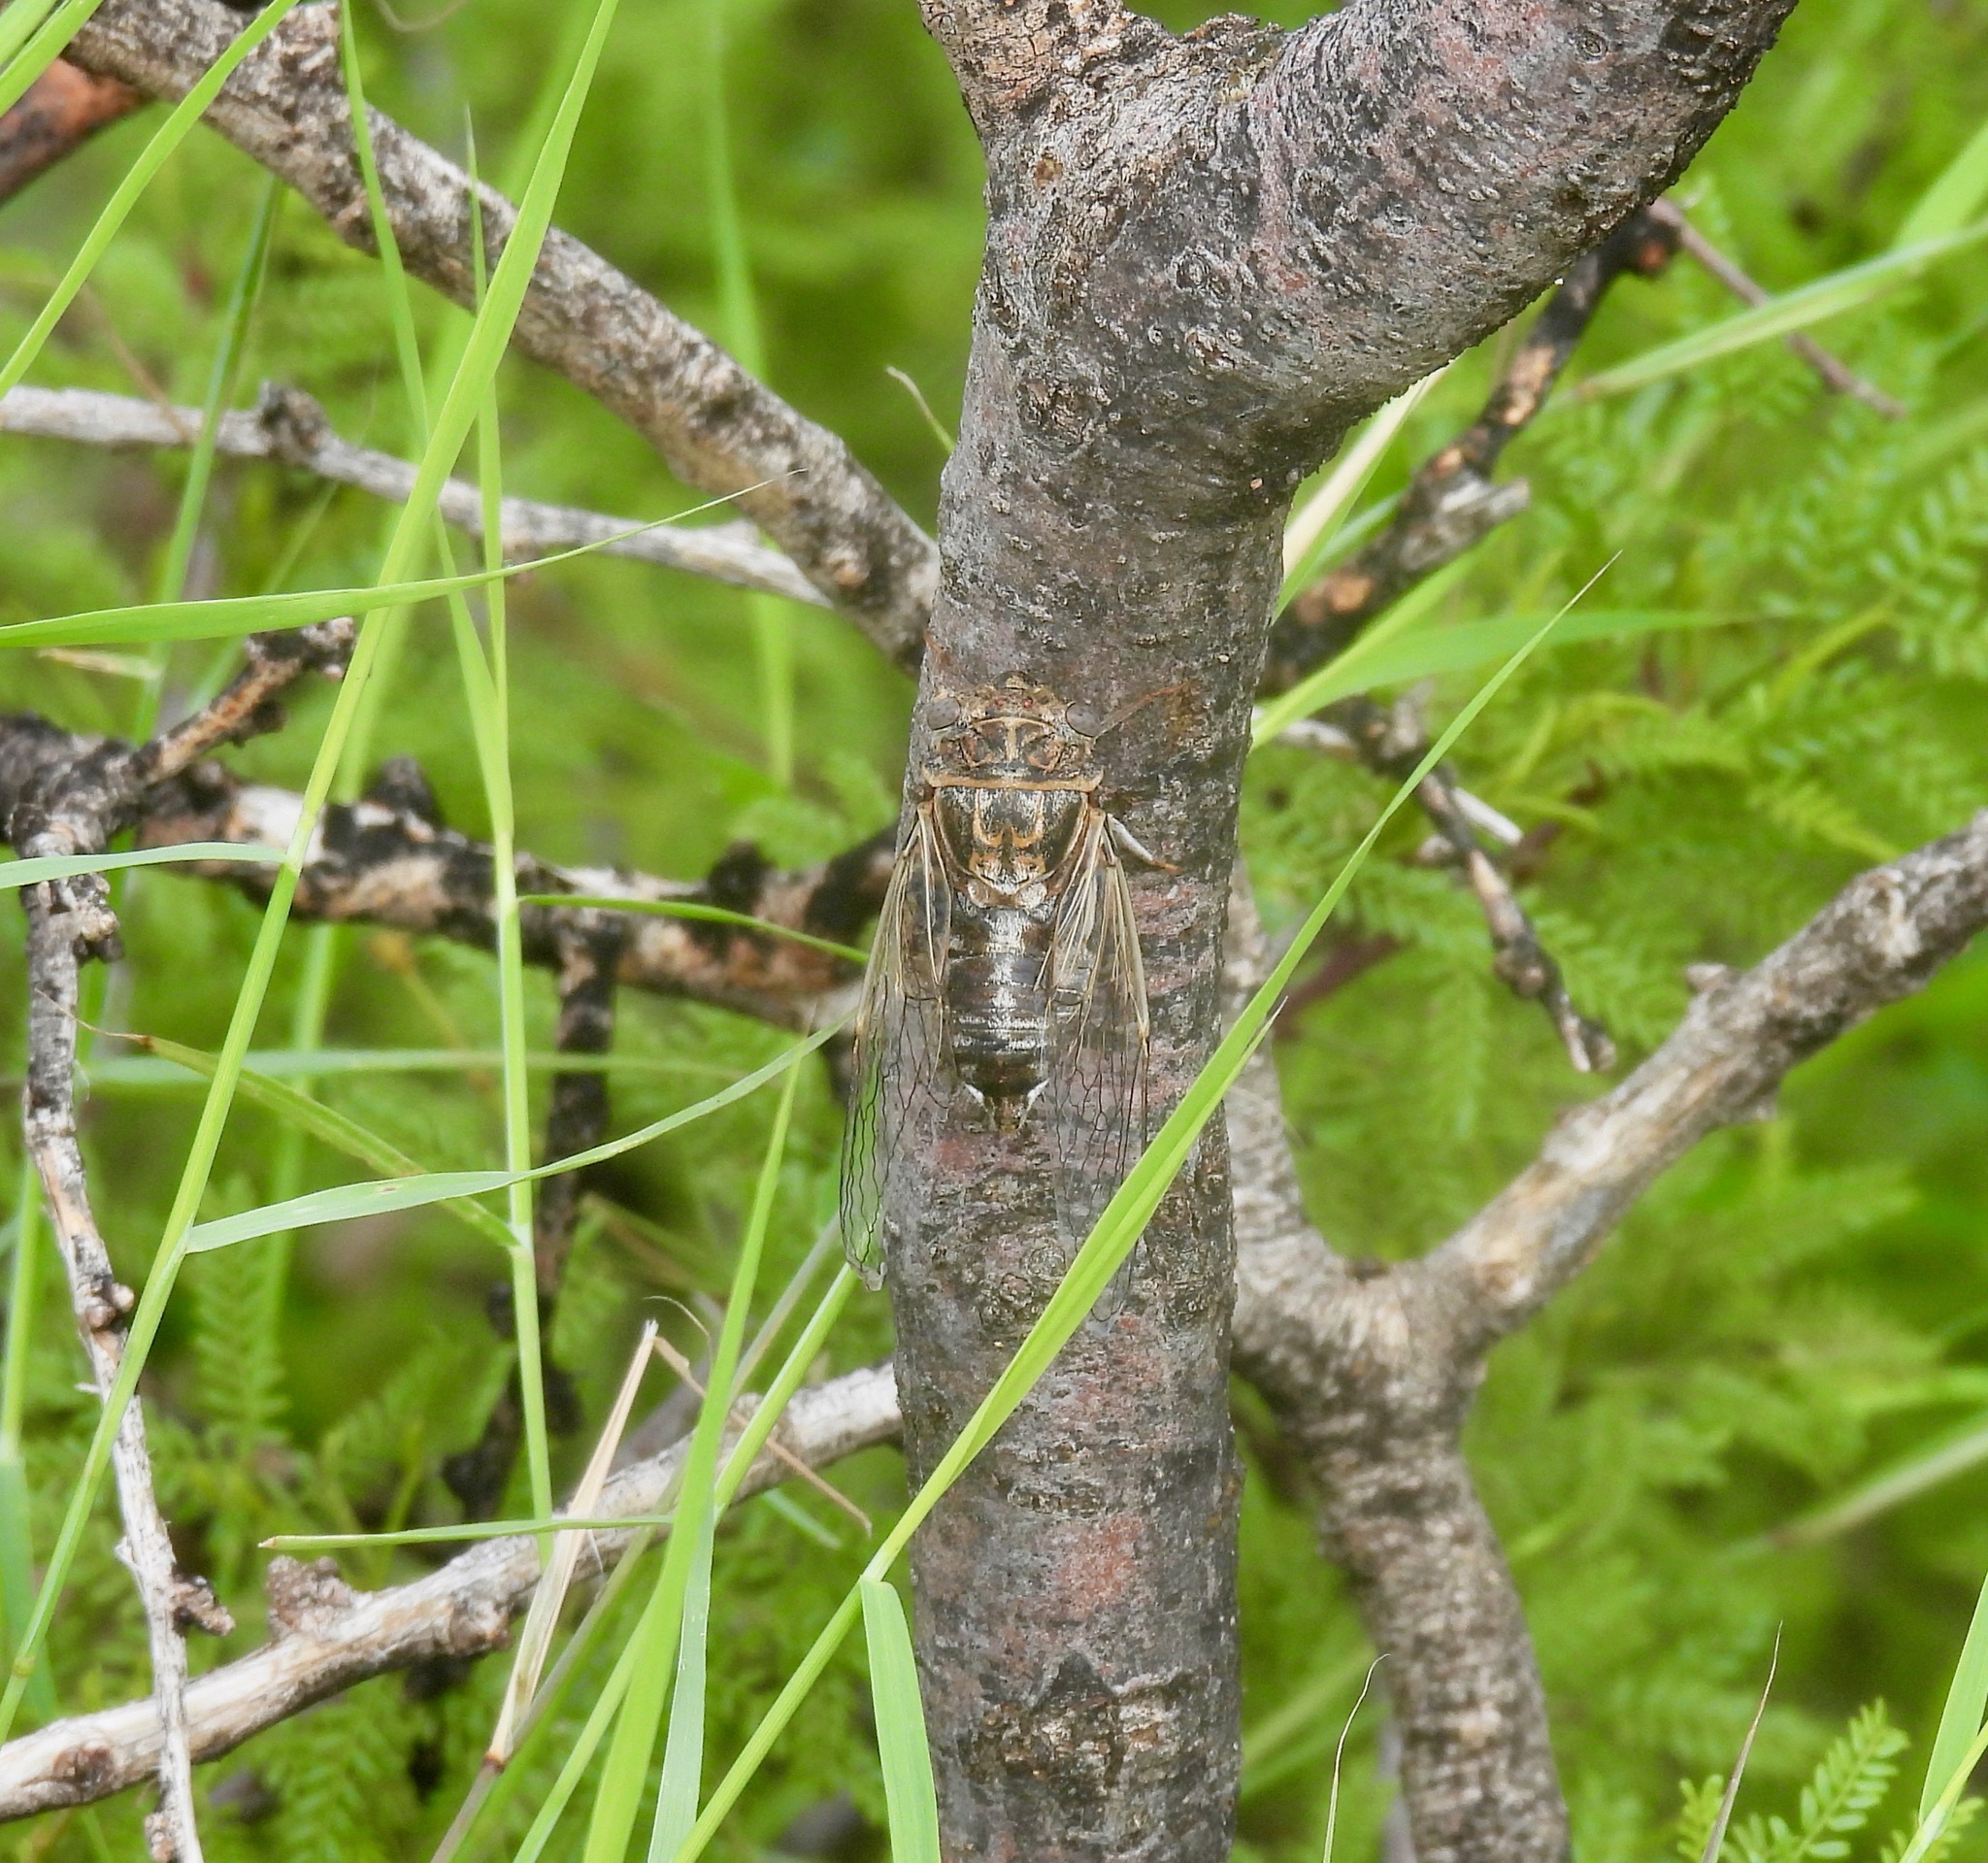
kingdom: Animalia
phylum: Arthropoda
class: Insecta
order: Hemiptera
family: Cicadidae
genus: Diceroprocta
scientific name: Diceroprocta eugraphica
